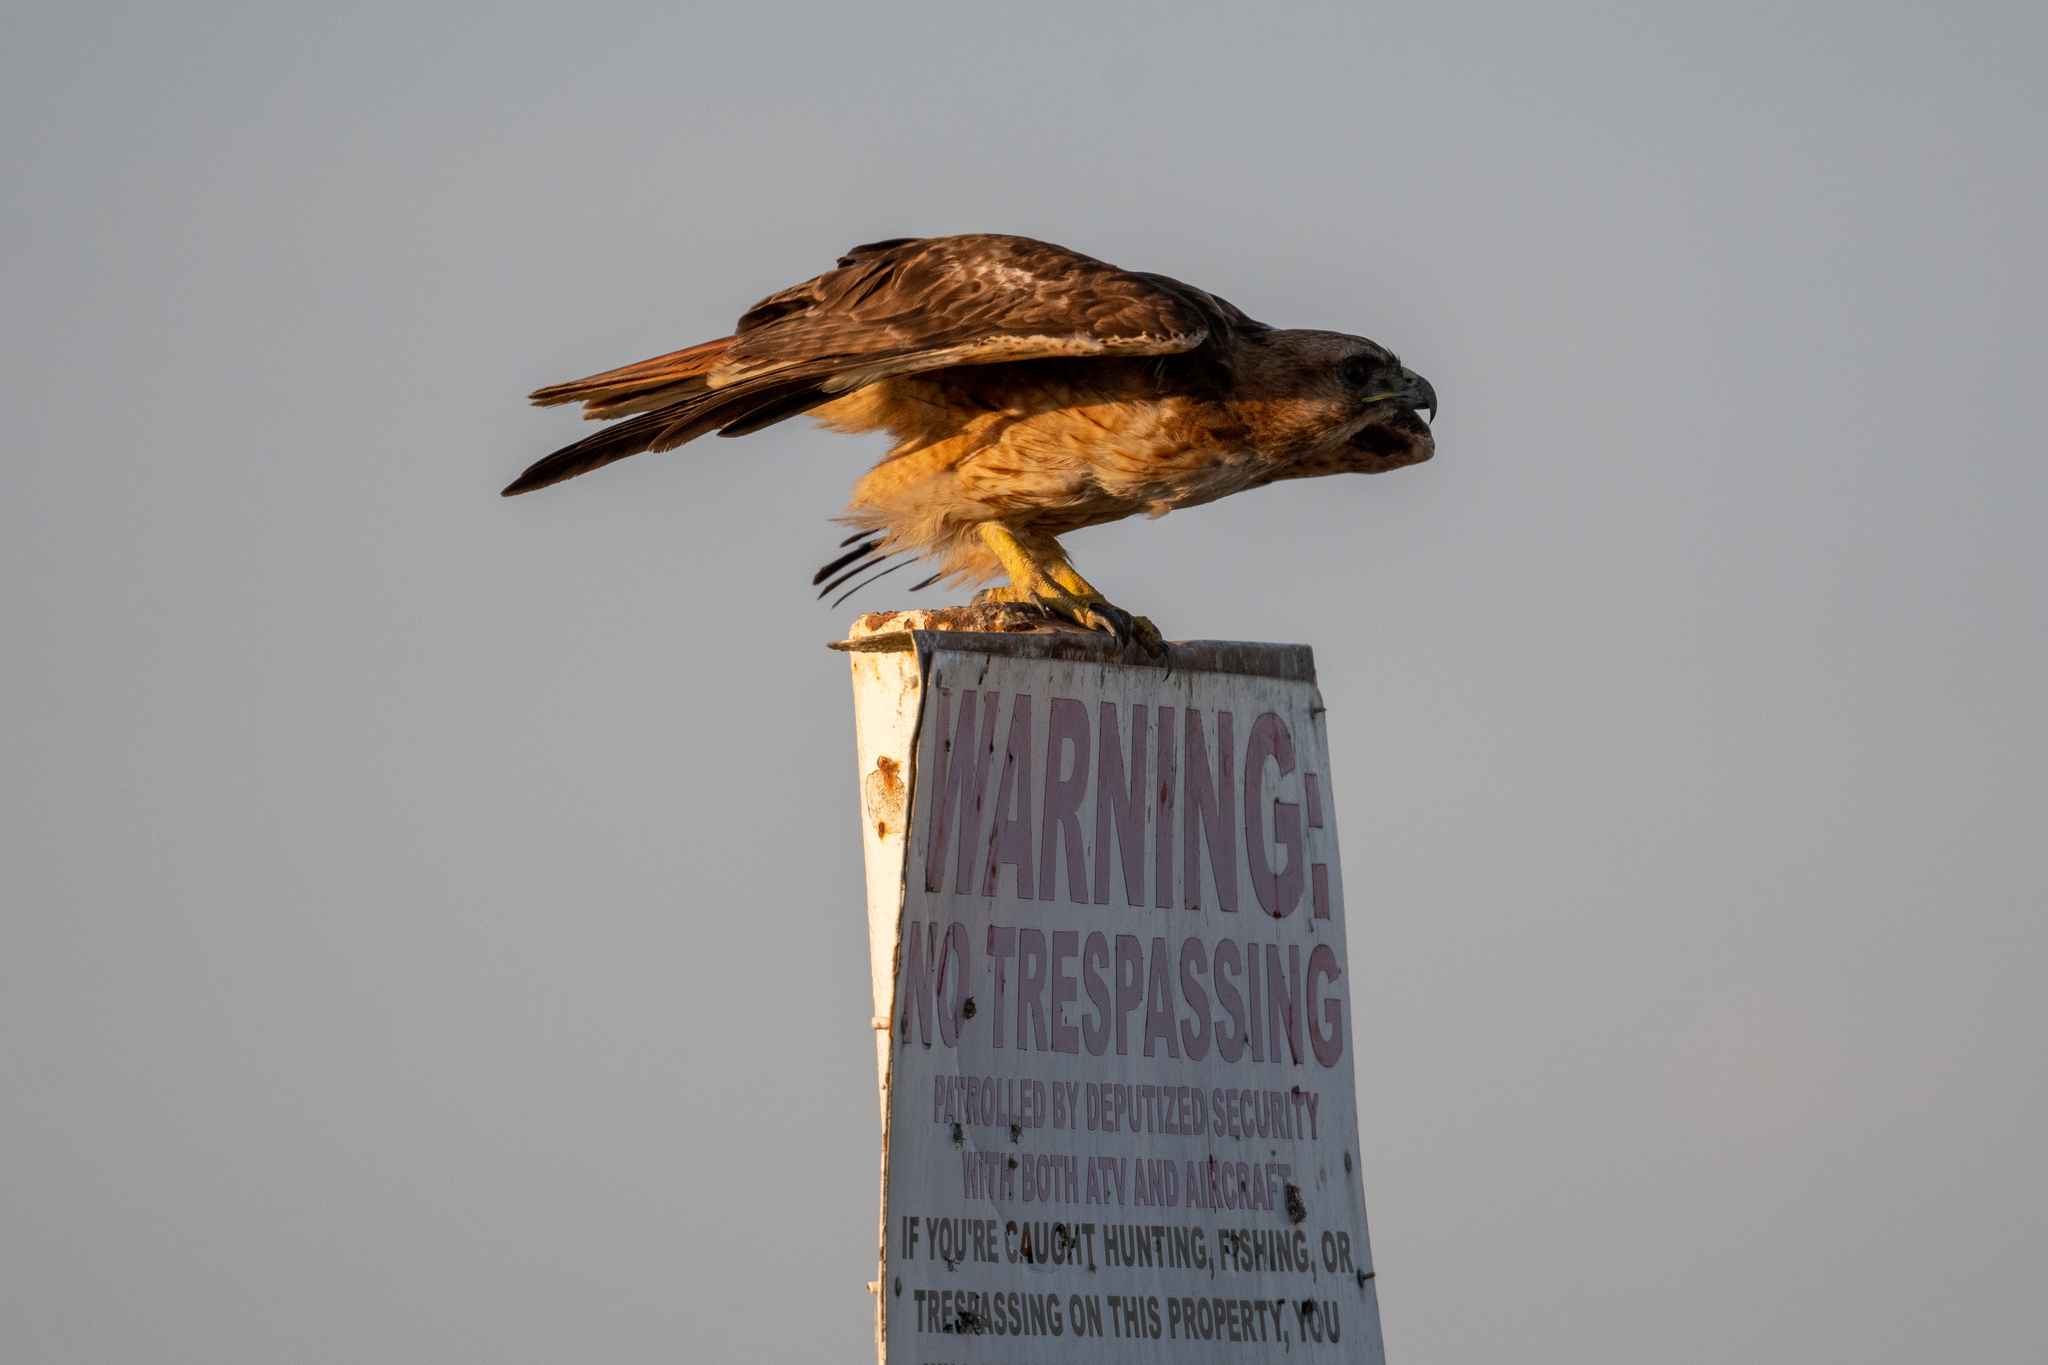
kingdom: Animalia
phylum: Chordata
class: Aves
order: Accipitriformes
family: Accipitridae
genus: Buteo
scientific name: Buteo jamaicensis
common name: Red-tailed hawk
